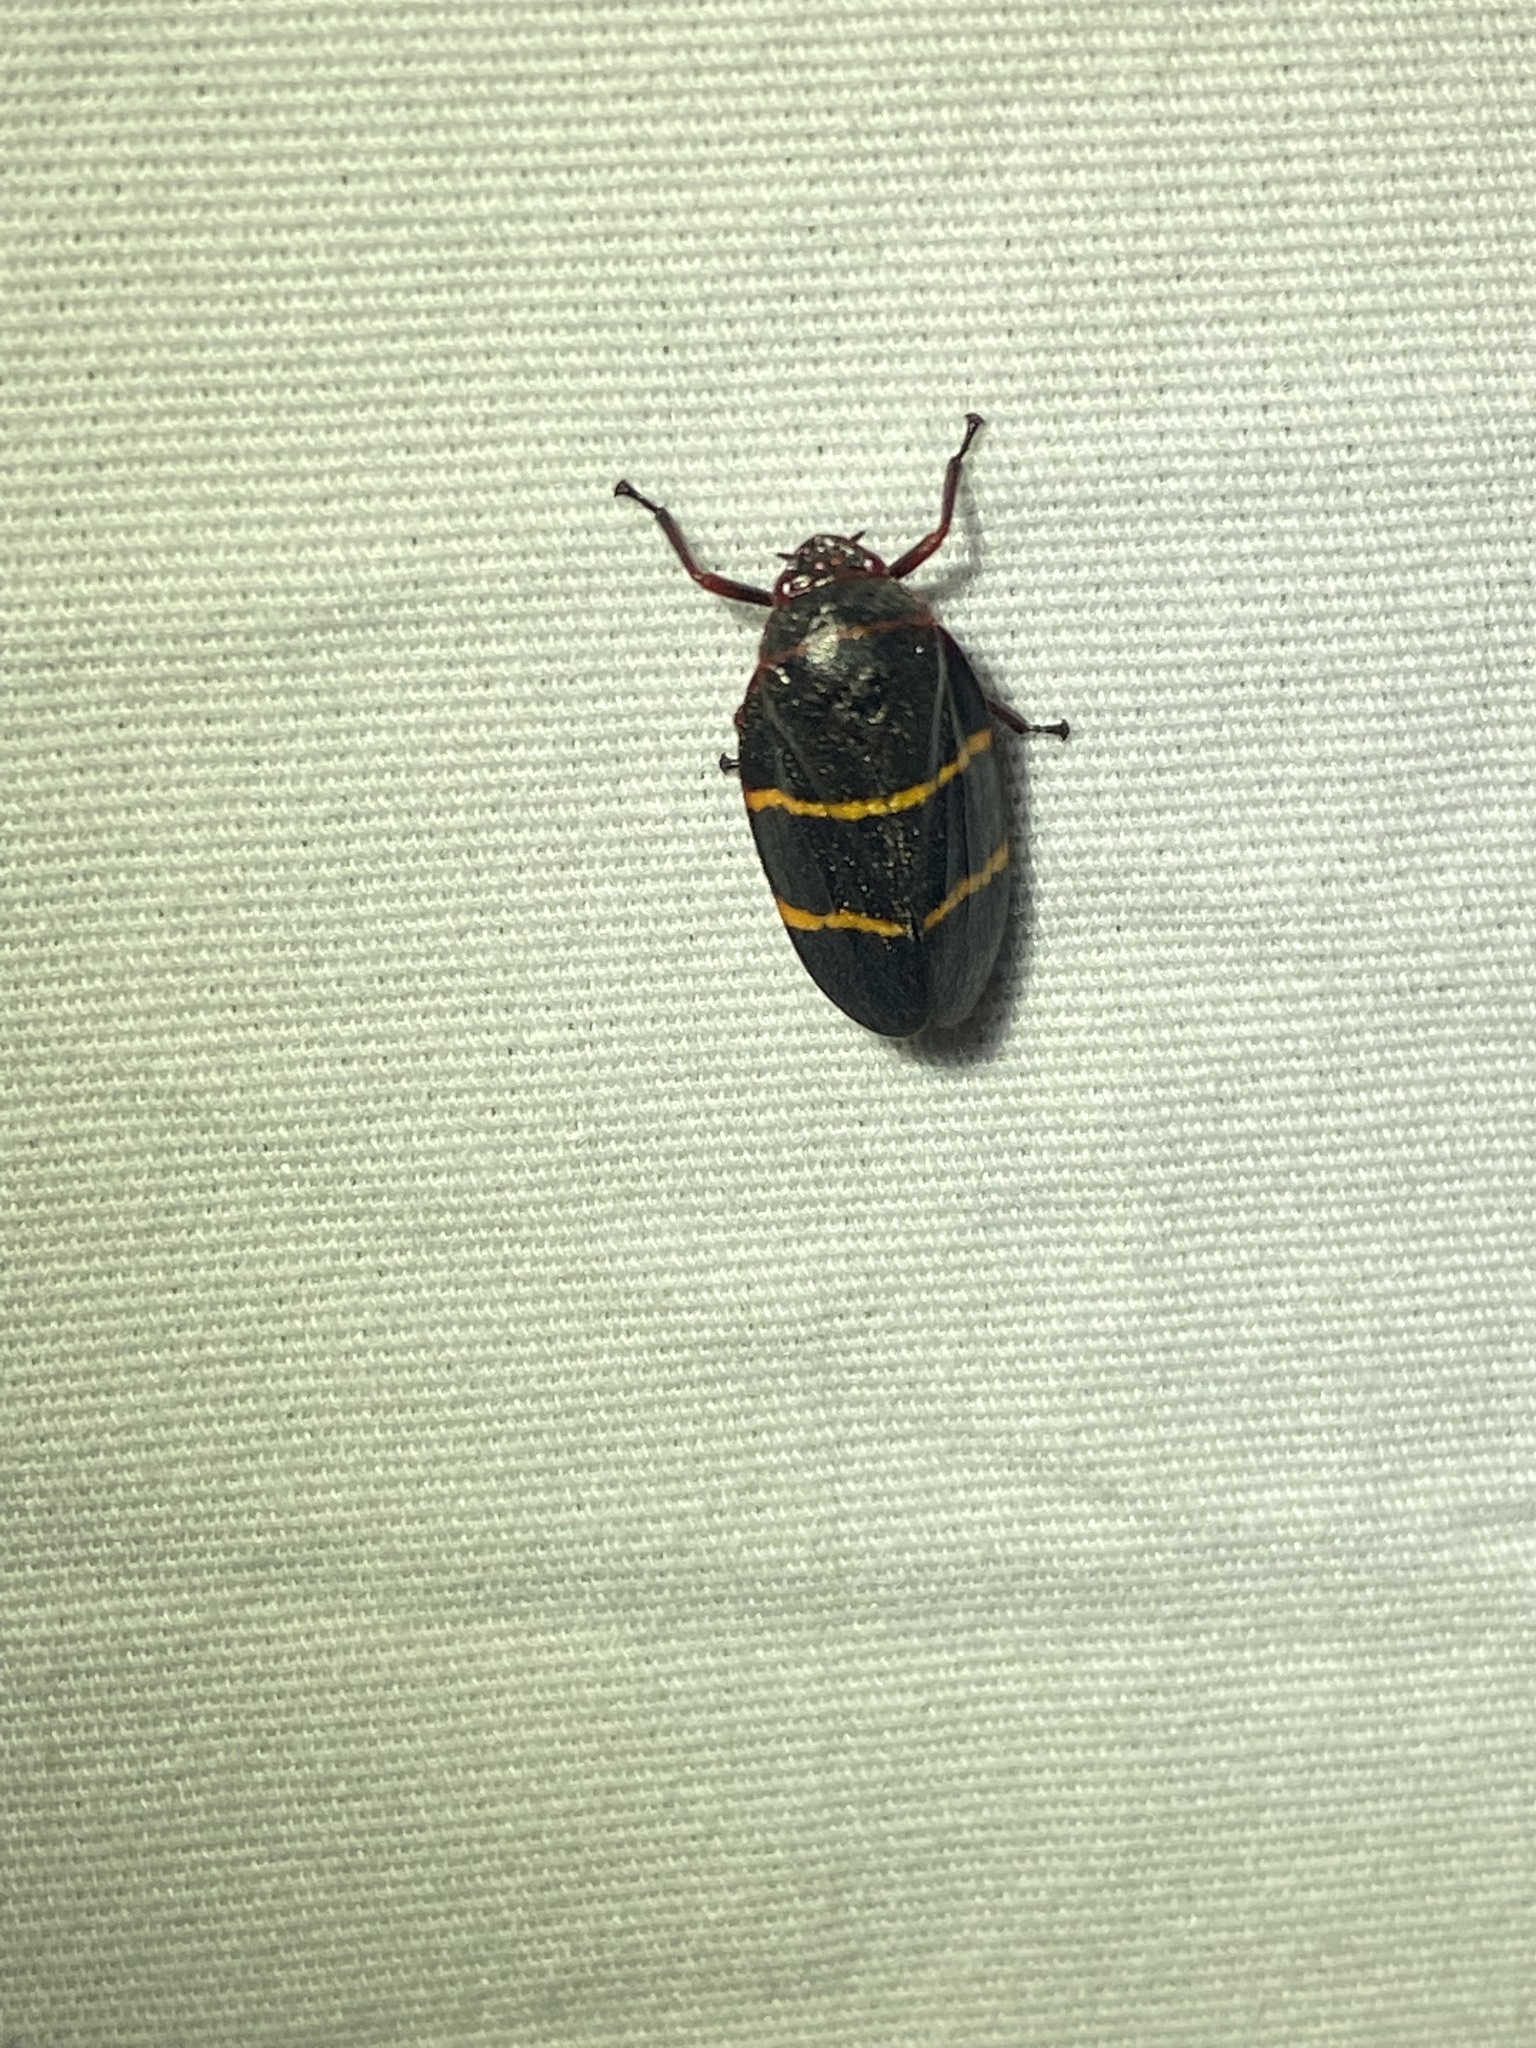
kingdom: Animalia
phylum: Arthropoda
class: Insecta
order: Hemiptera
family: Cercopidae
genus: Prosapia
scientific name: Prosapia bicincta
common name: Twolined spittlebug
